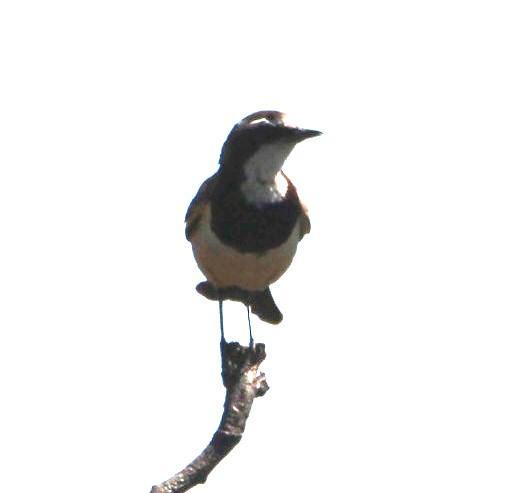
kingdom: Animalia
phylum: Chordata
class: Aves
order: Passeriformes
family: Muscicapidae
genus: Oenanthe
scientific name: Oenanthe pileata
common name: Capped wheatear
